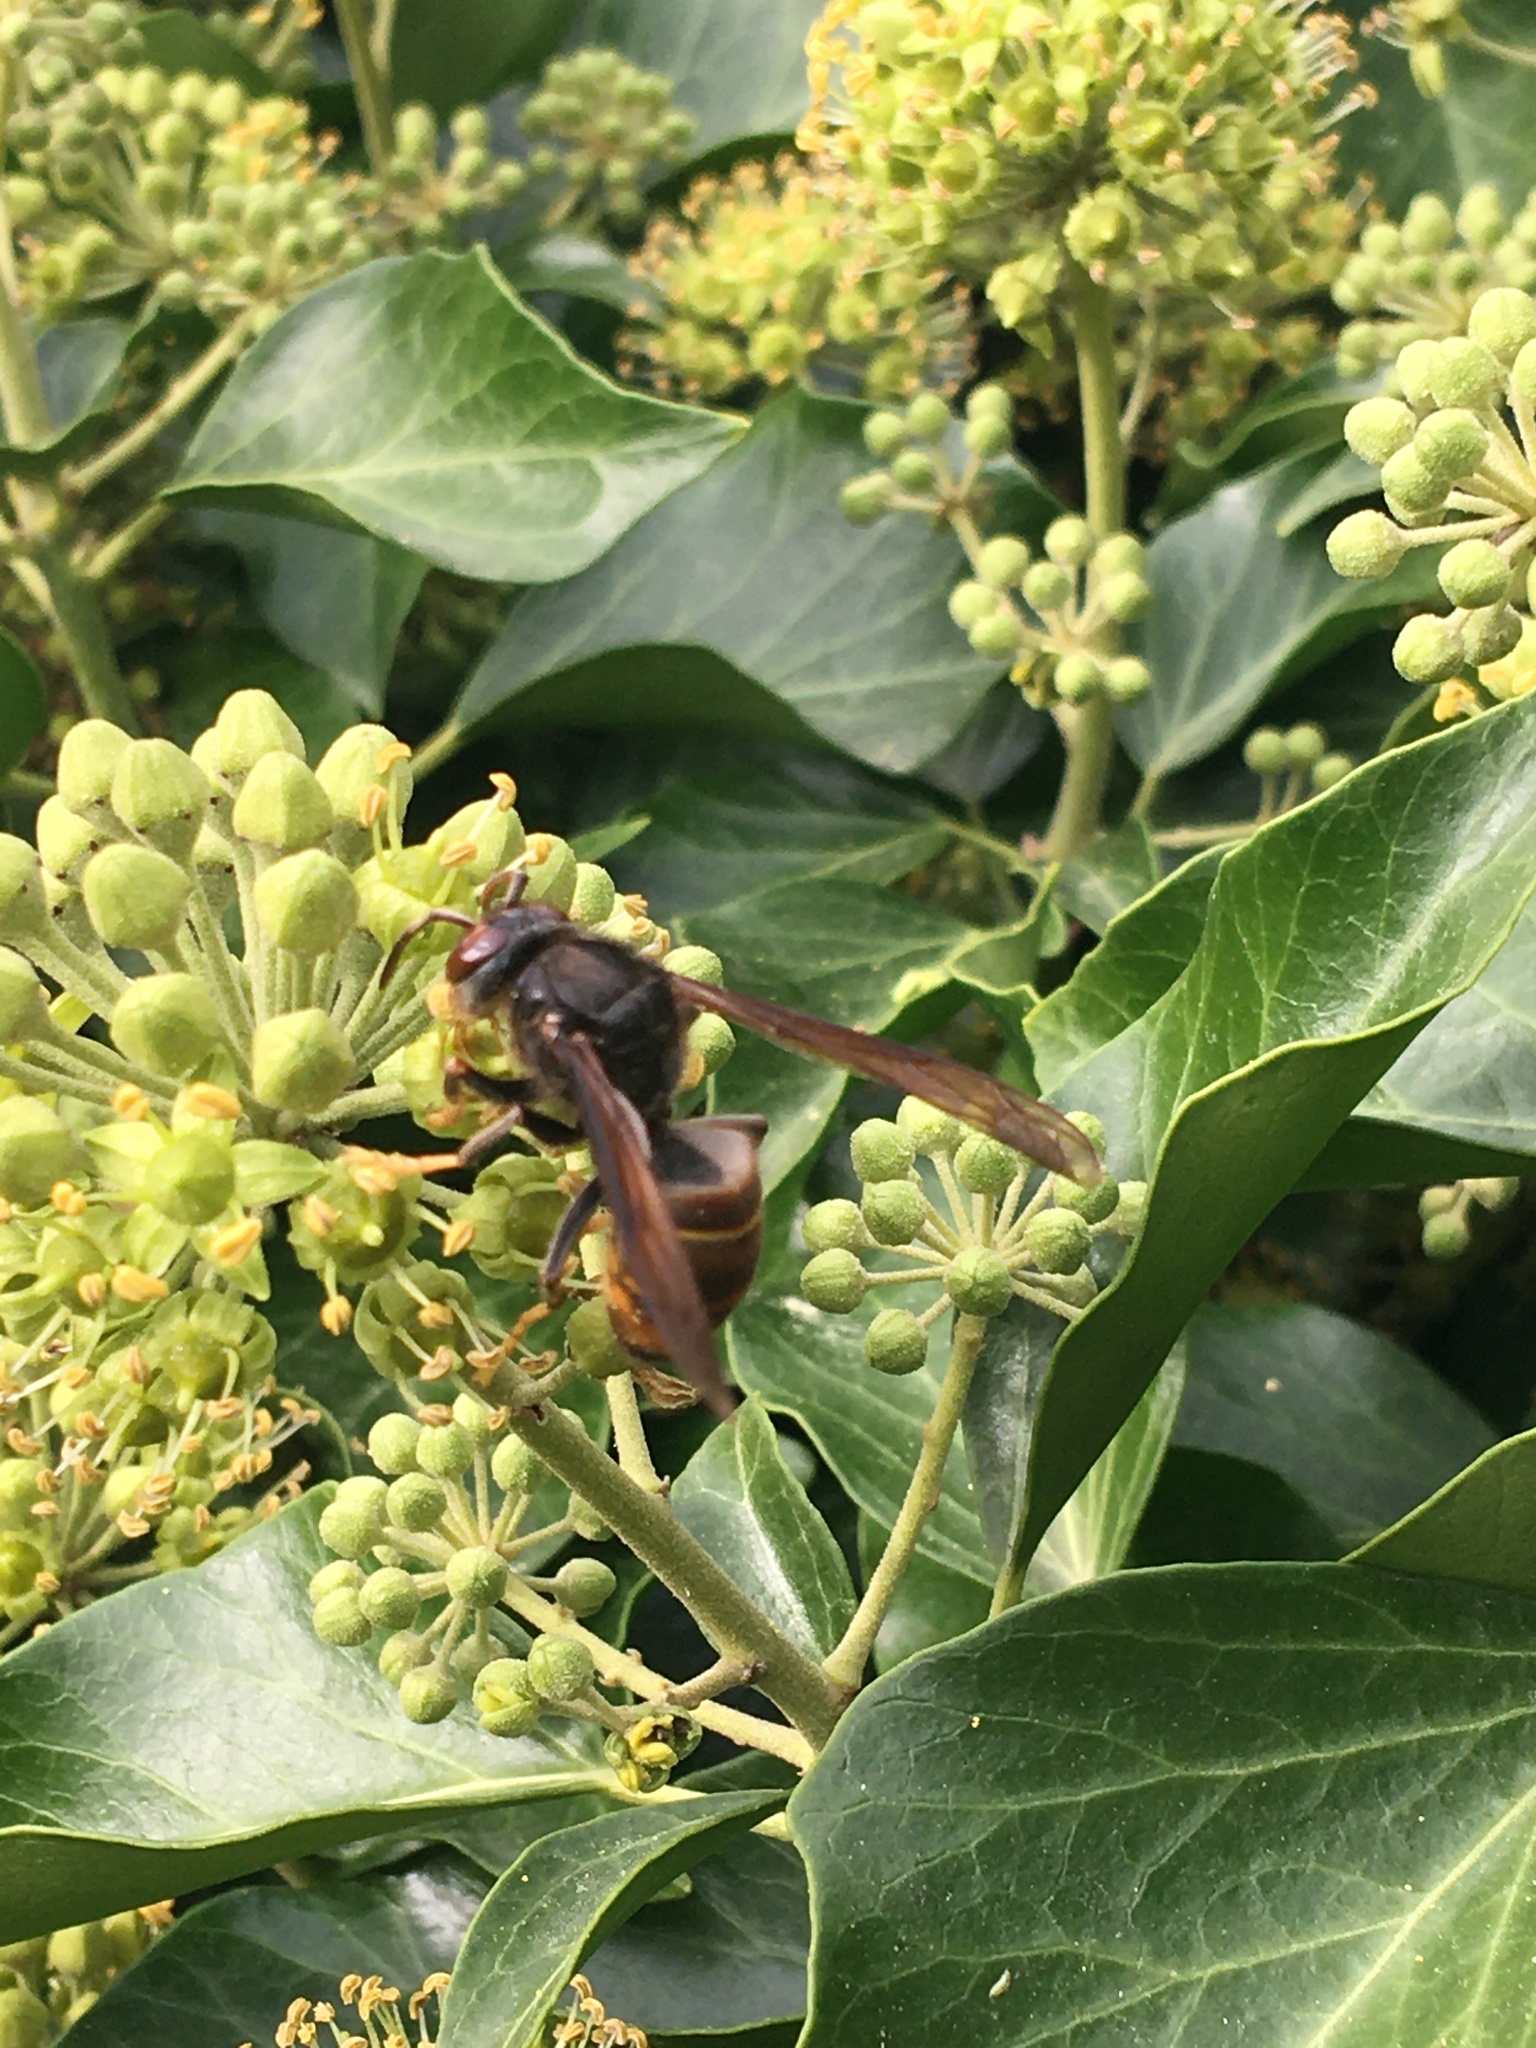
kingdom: Animalia
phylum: Arthropoda
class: Insecta
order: Hymenoptera
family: Vespidae
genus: Vespa
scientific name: Vespa velutina
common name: Asian hornet
